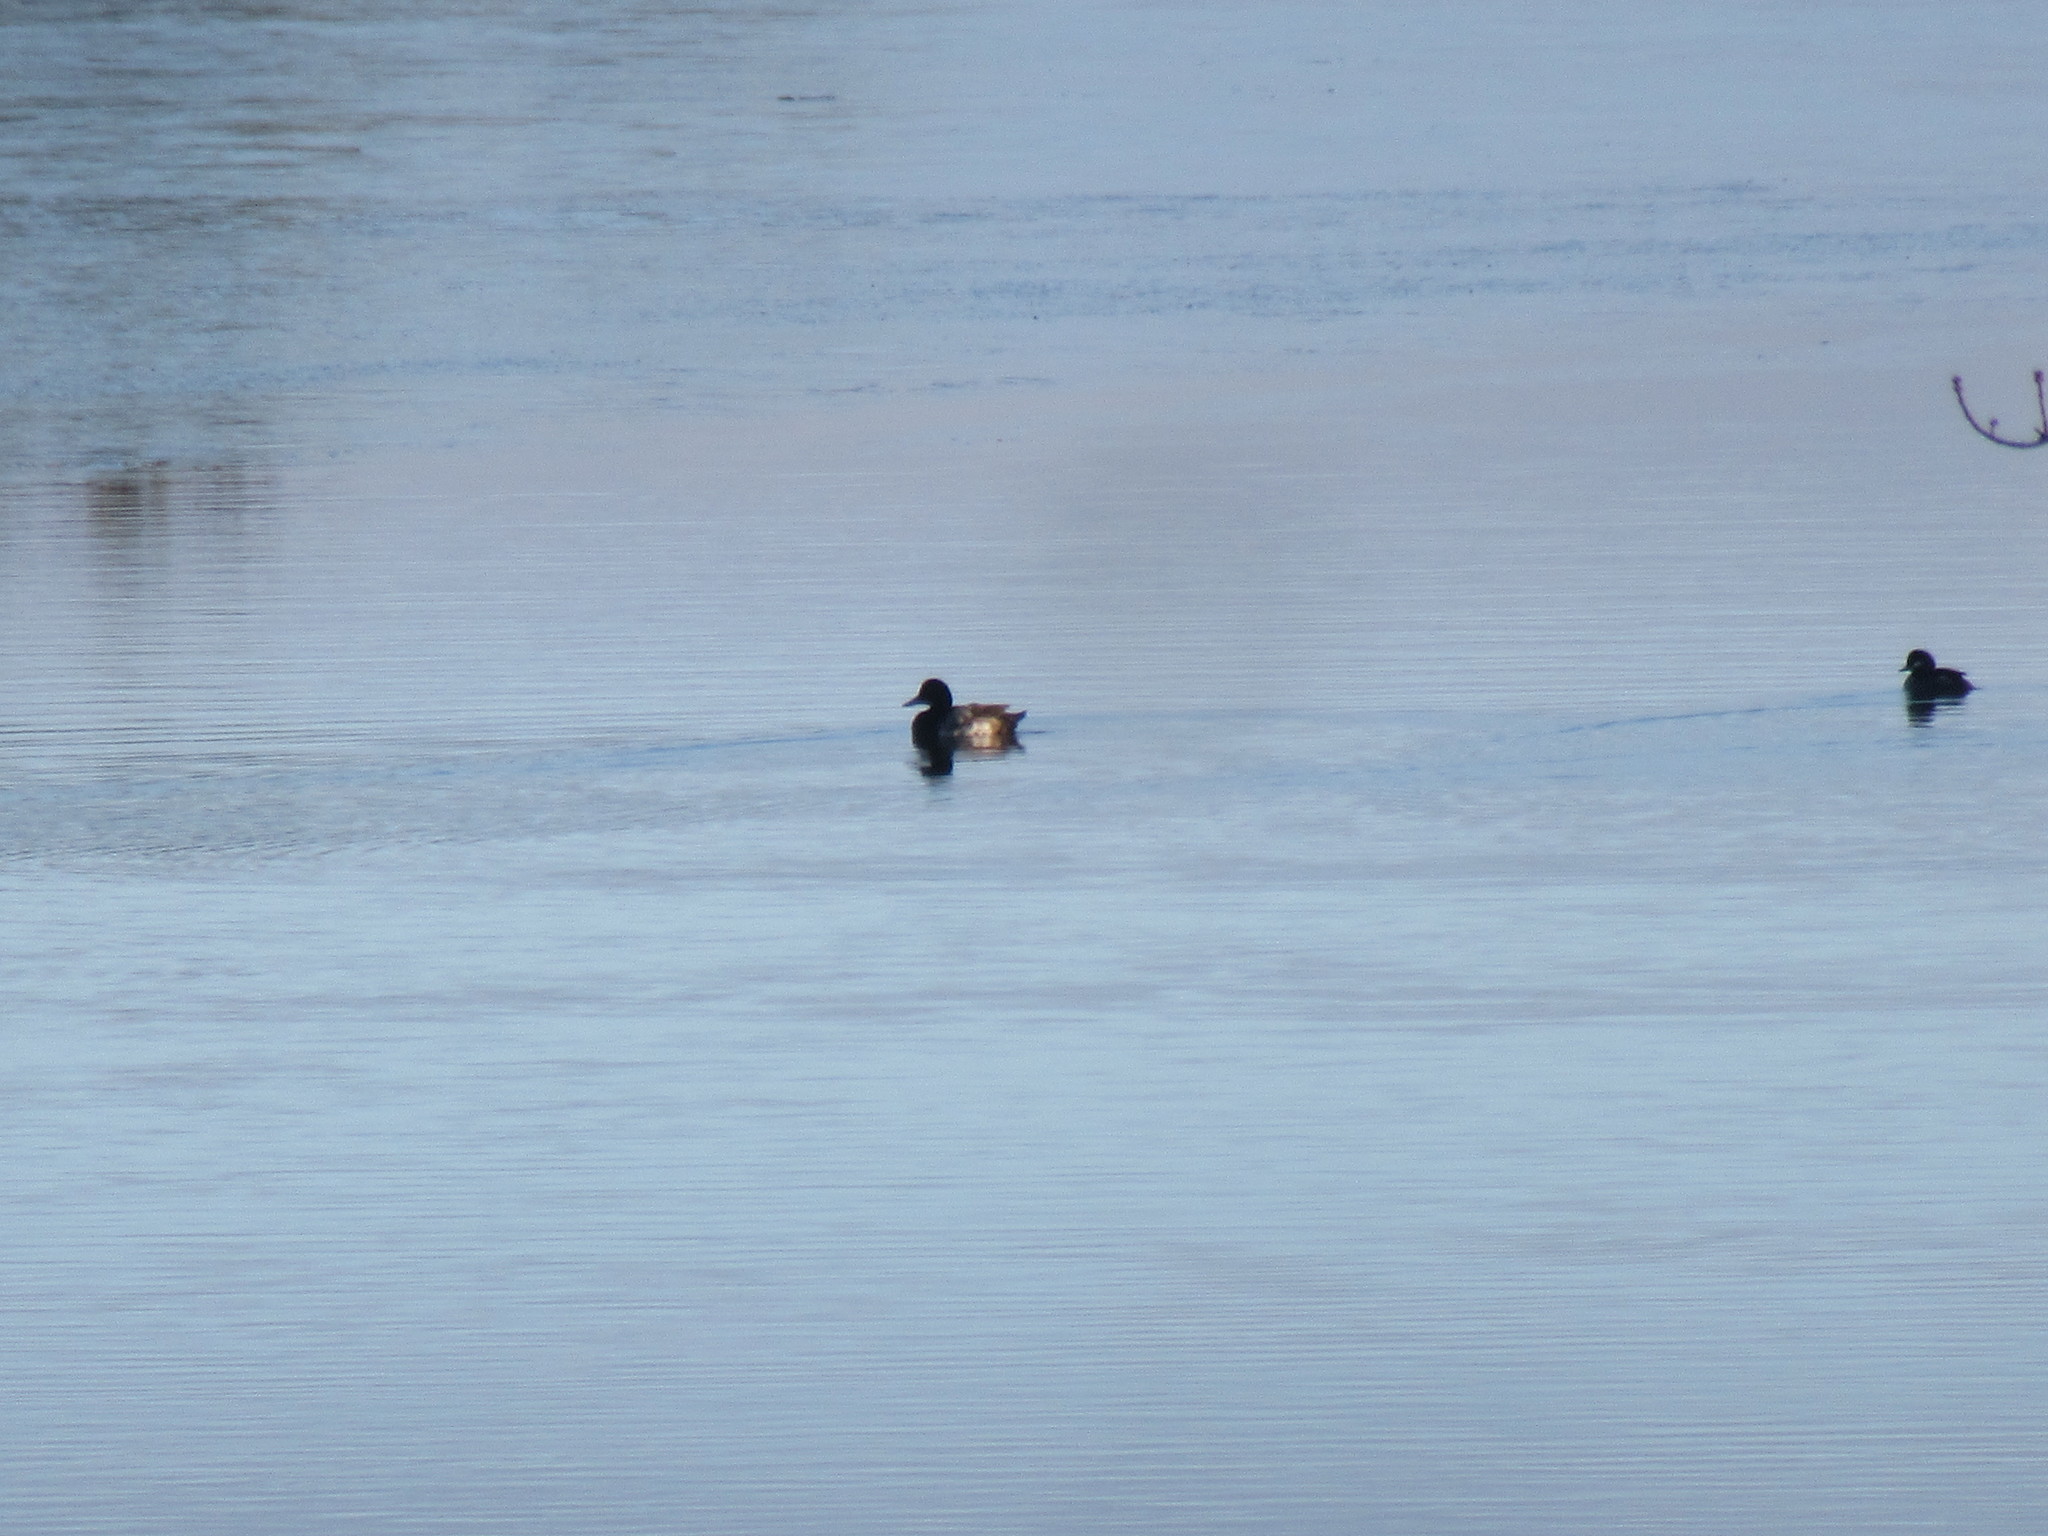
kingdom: Animalia
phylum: Chordata
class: Aves
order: Anseriformes
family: Anatidae
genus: Aythya
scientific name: Aythya marila
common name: Greater scaup
